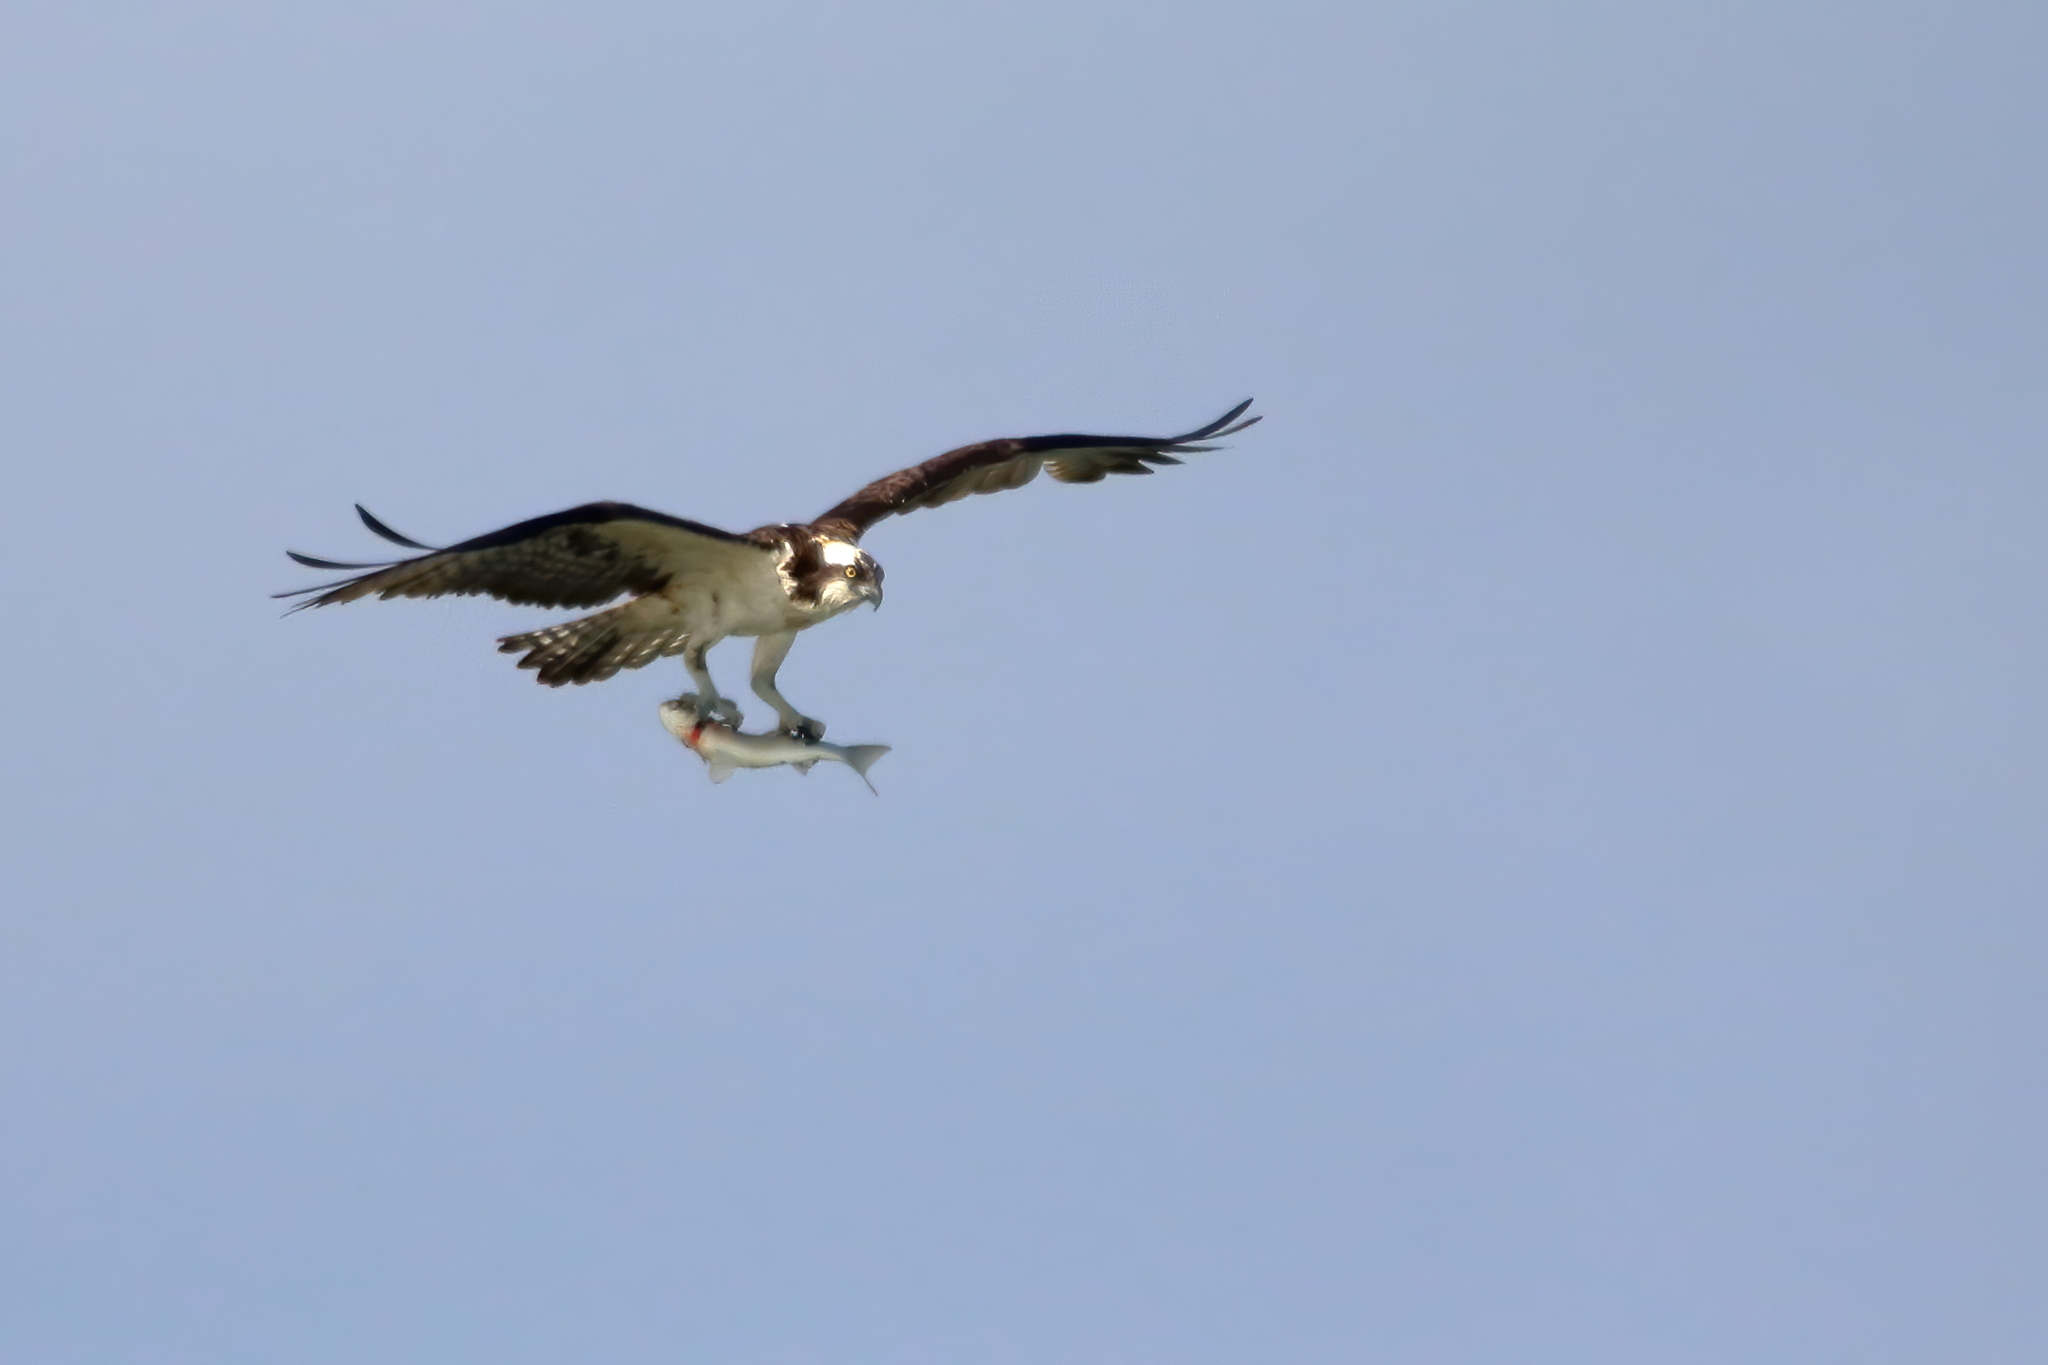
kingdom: Animalia
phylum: Chordata
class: Aves
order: Accipitriformes
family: Pandionidae
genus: Pandion
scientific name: Pandion haliaetus
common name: Osprey
